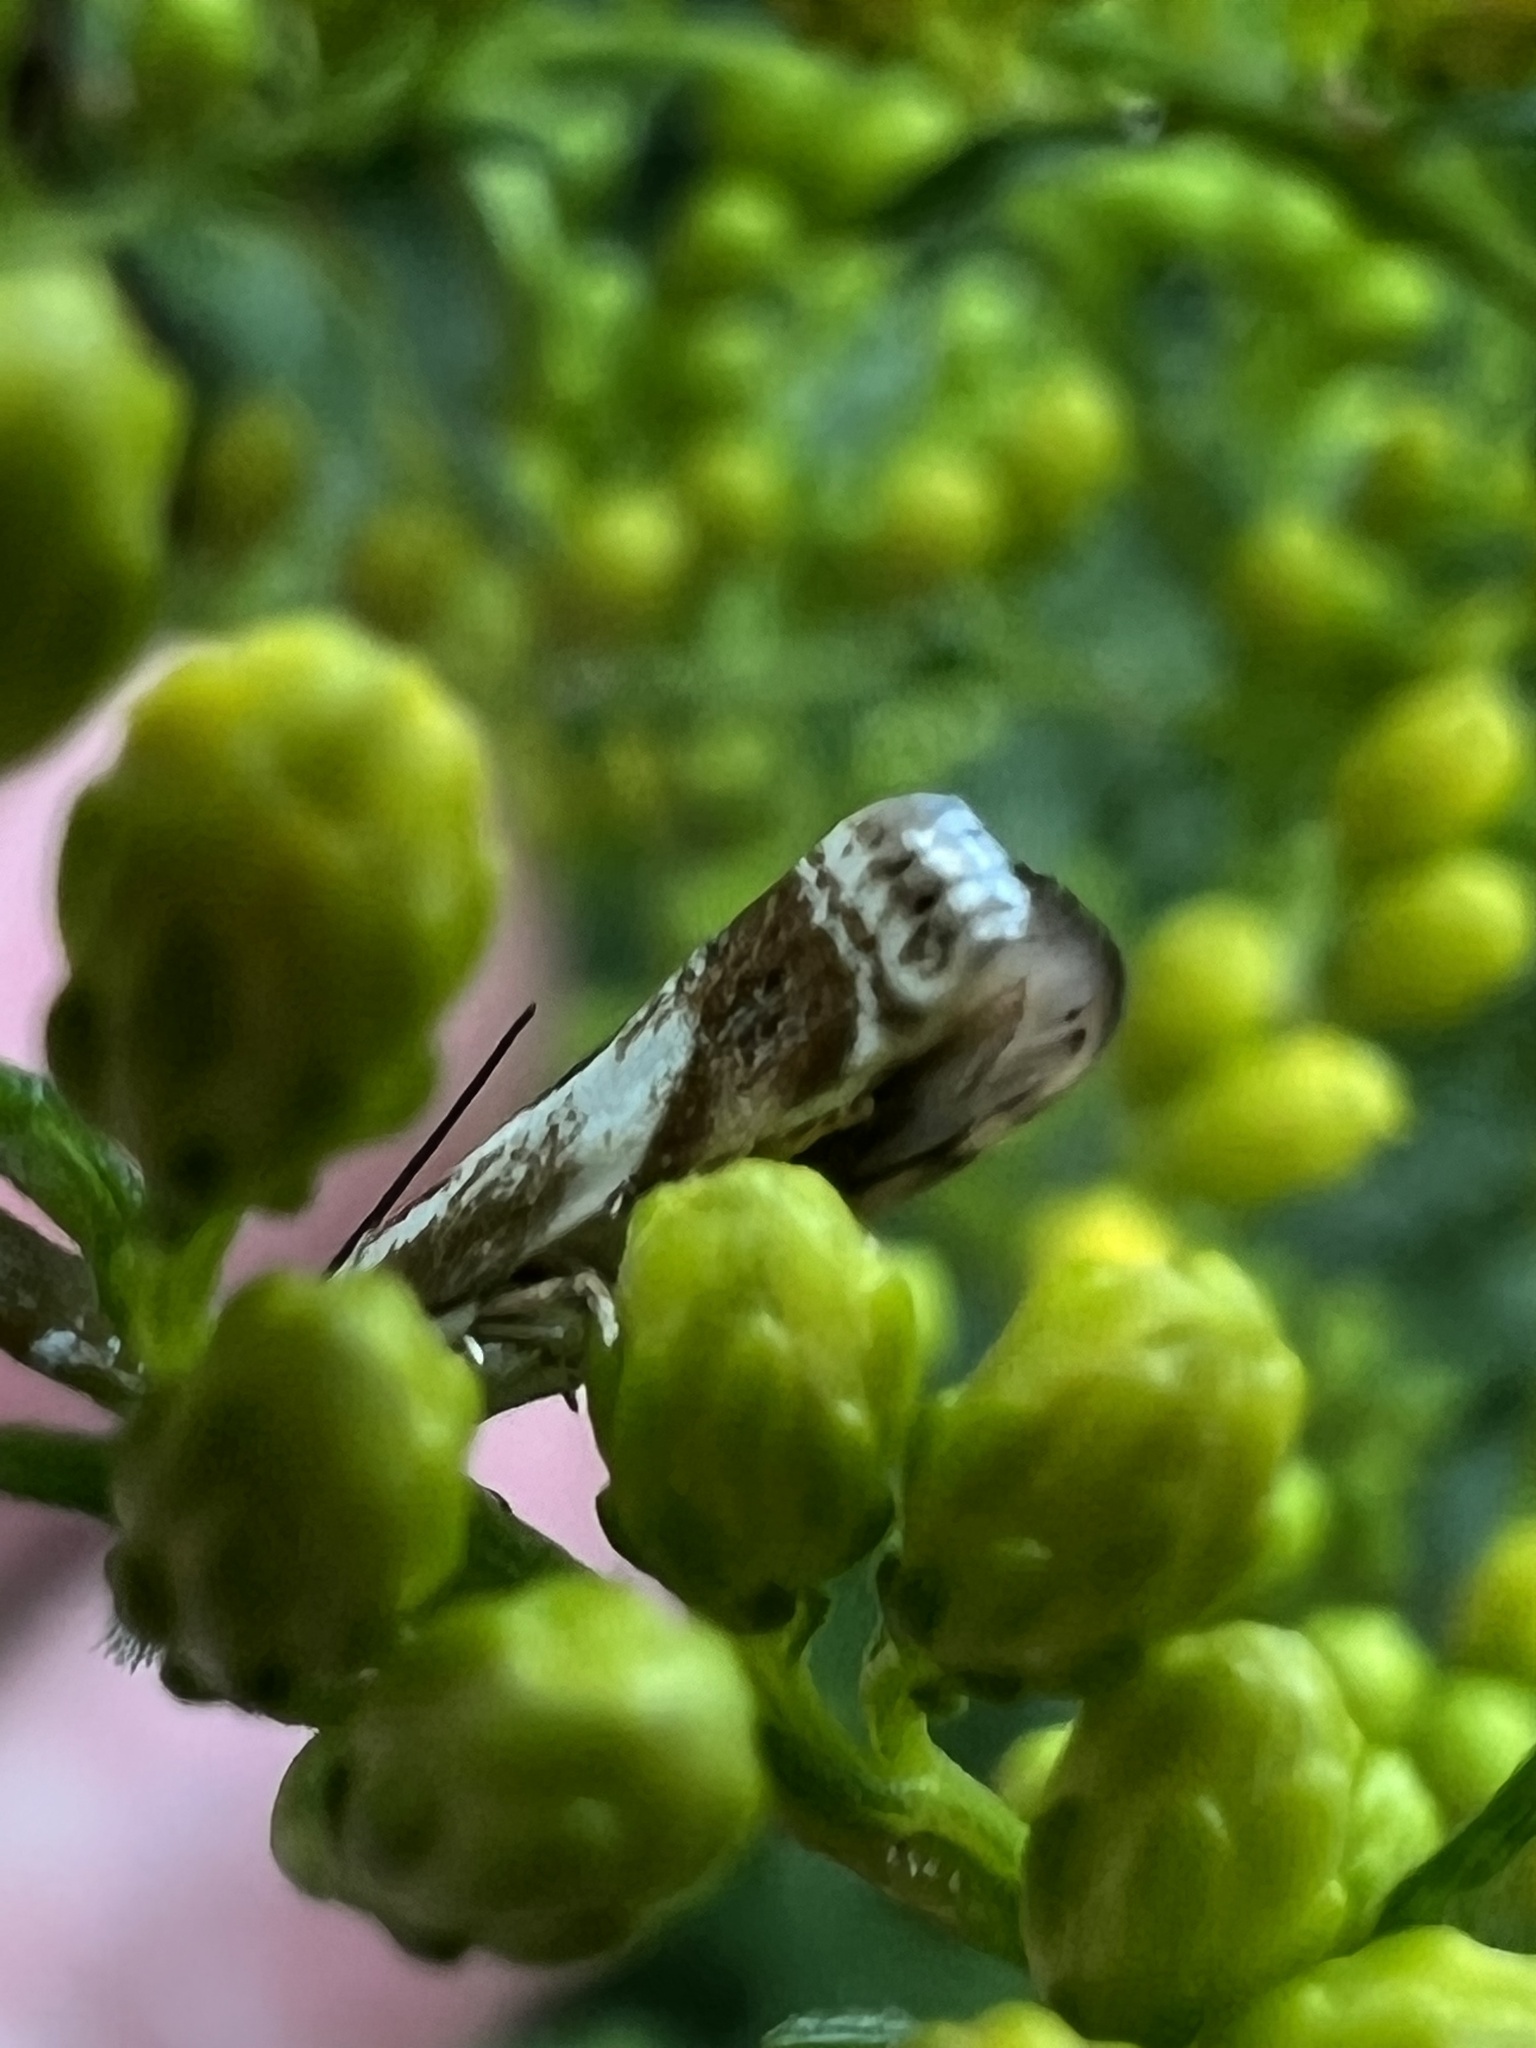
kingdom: Animalia
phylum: Arthropoda
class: Insecta
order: Lepidoptera
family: Crambidae
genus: Microcrambus
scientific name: Microcrambus elegans
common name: Elegant grass-veneer
